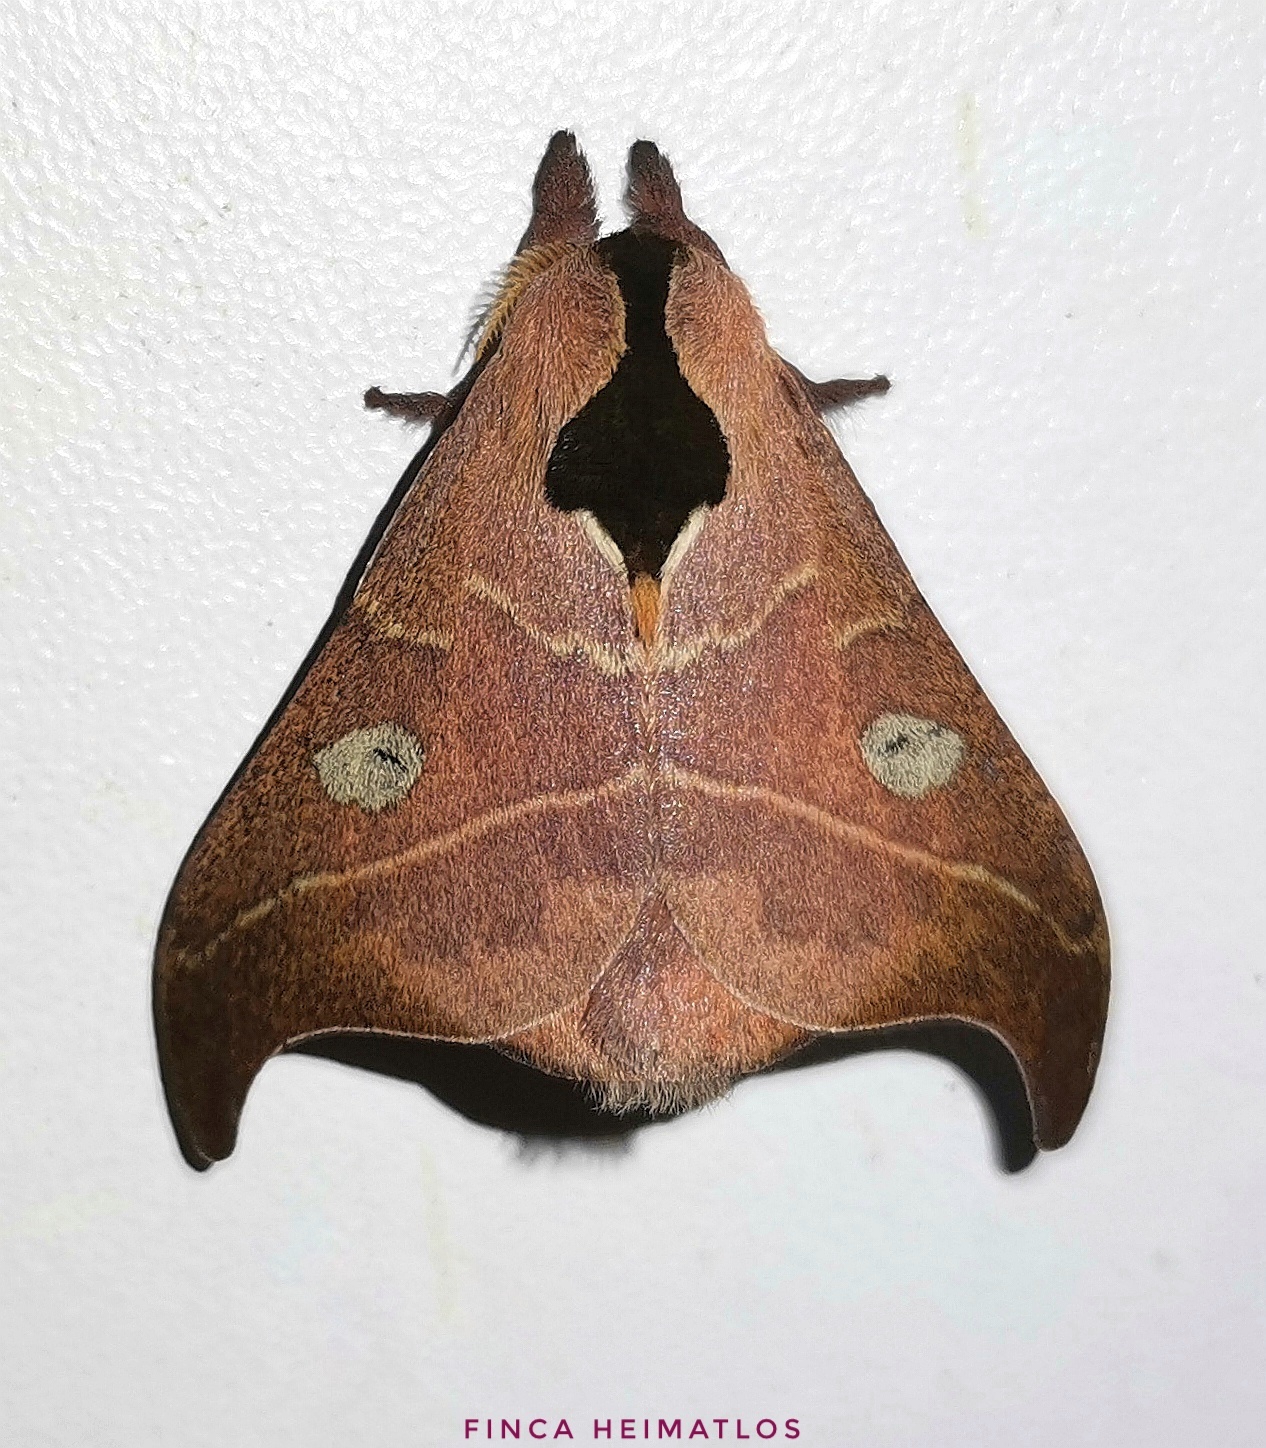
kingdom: Animalia
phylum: Arthropoda
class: Insecta
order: Lepidoptera
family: Saturniidae
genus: Hylesia
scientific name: Hylesia nanus
